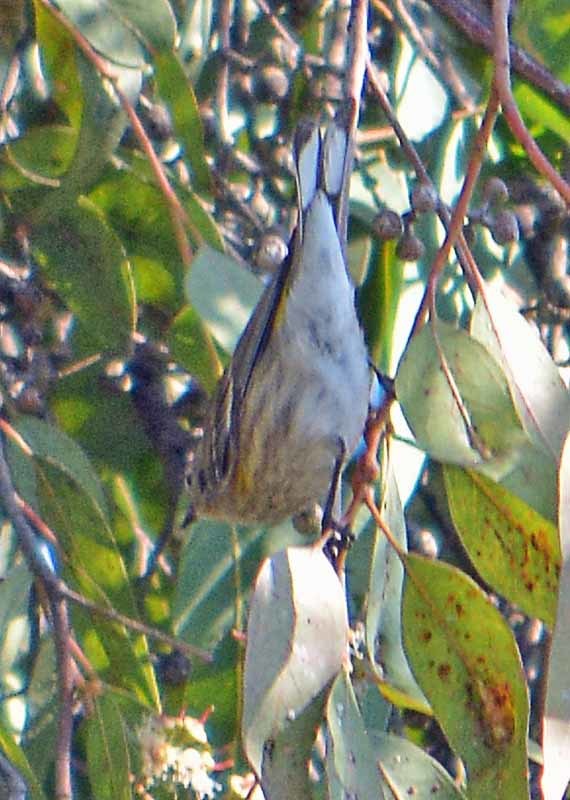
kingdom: Animalia
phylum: Chordata
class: Aves
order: Passeriformes
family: Parulidae
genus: Setophaga
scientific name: Setophaga coronata
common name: Myrtle warbler
